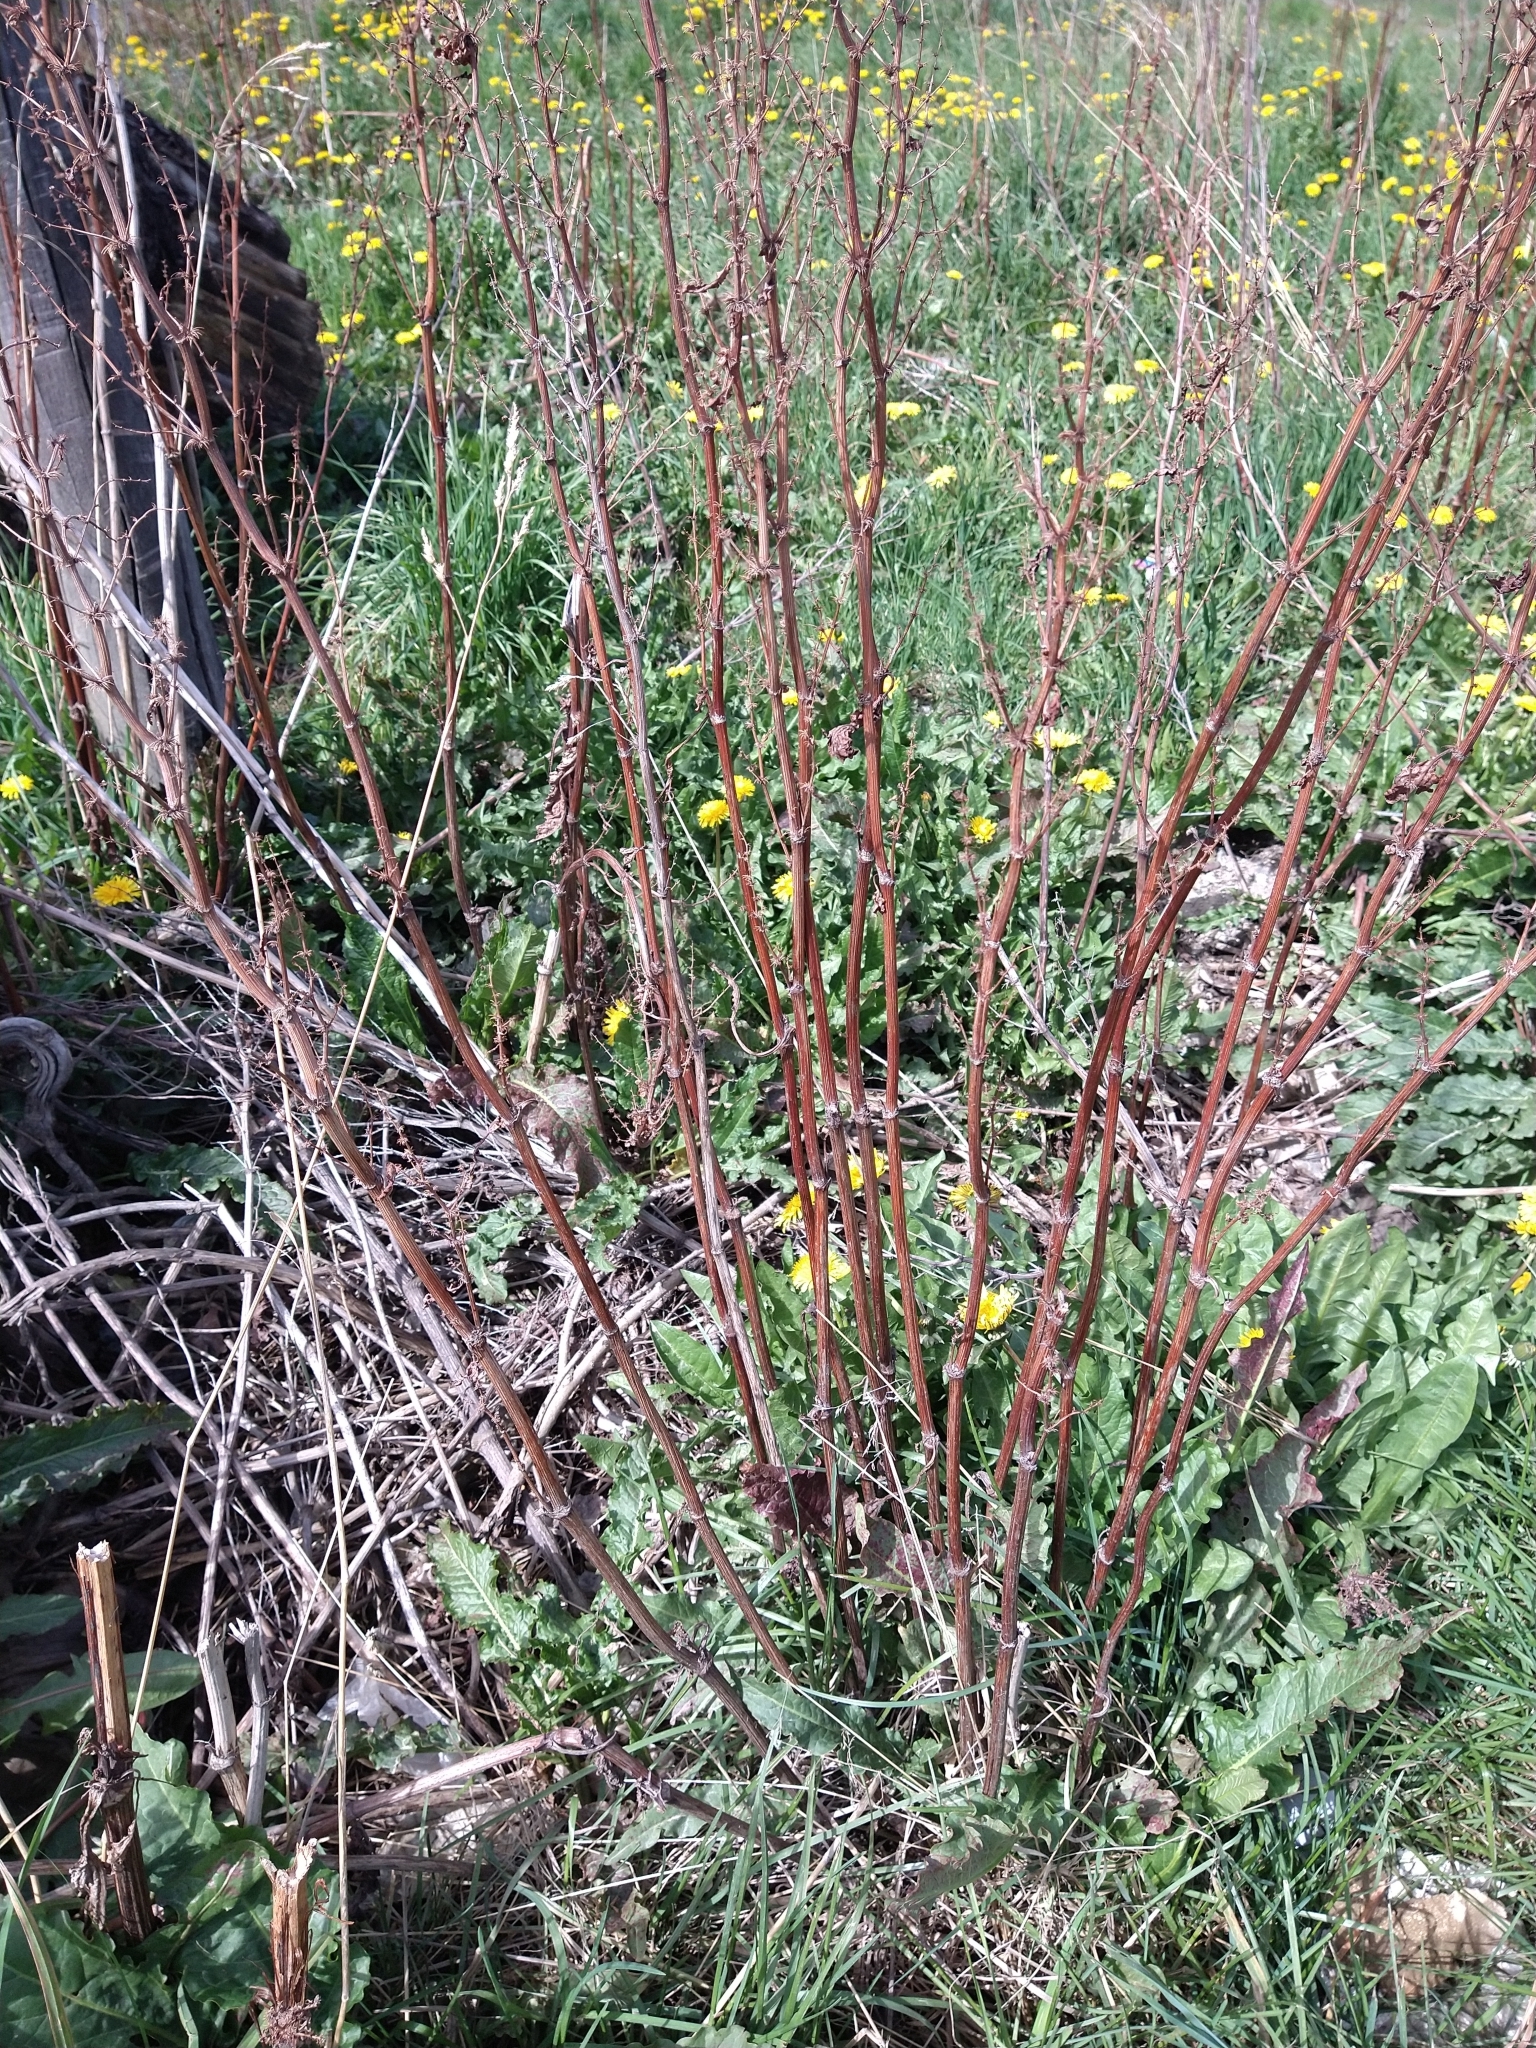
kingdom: Plantae
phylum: Tracheophyta
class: Magnoliopsida
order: Caryophyllales
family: Polygonaceae
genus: Rumex
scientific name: Rumex crispus
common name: Curled dock
